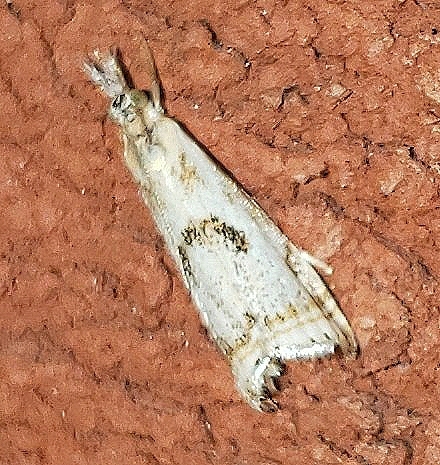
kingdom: Animalia
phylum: Arthropoda
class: Insecta
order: Lepidoptera
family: Crambidae
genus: Microcrambus
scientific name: Microcrambus elegans
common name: Elegant grass-veneer
